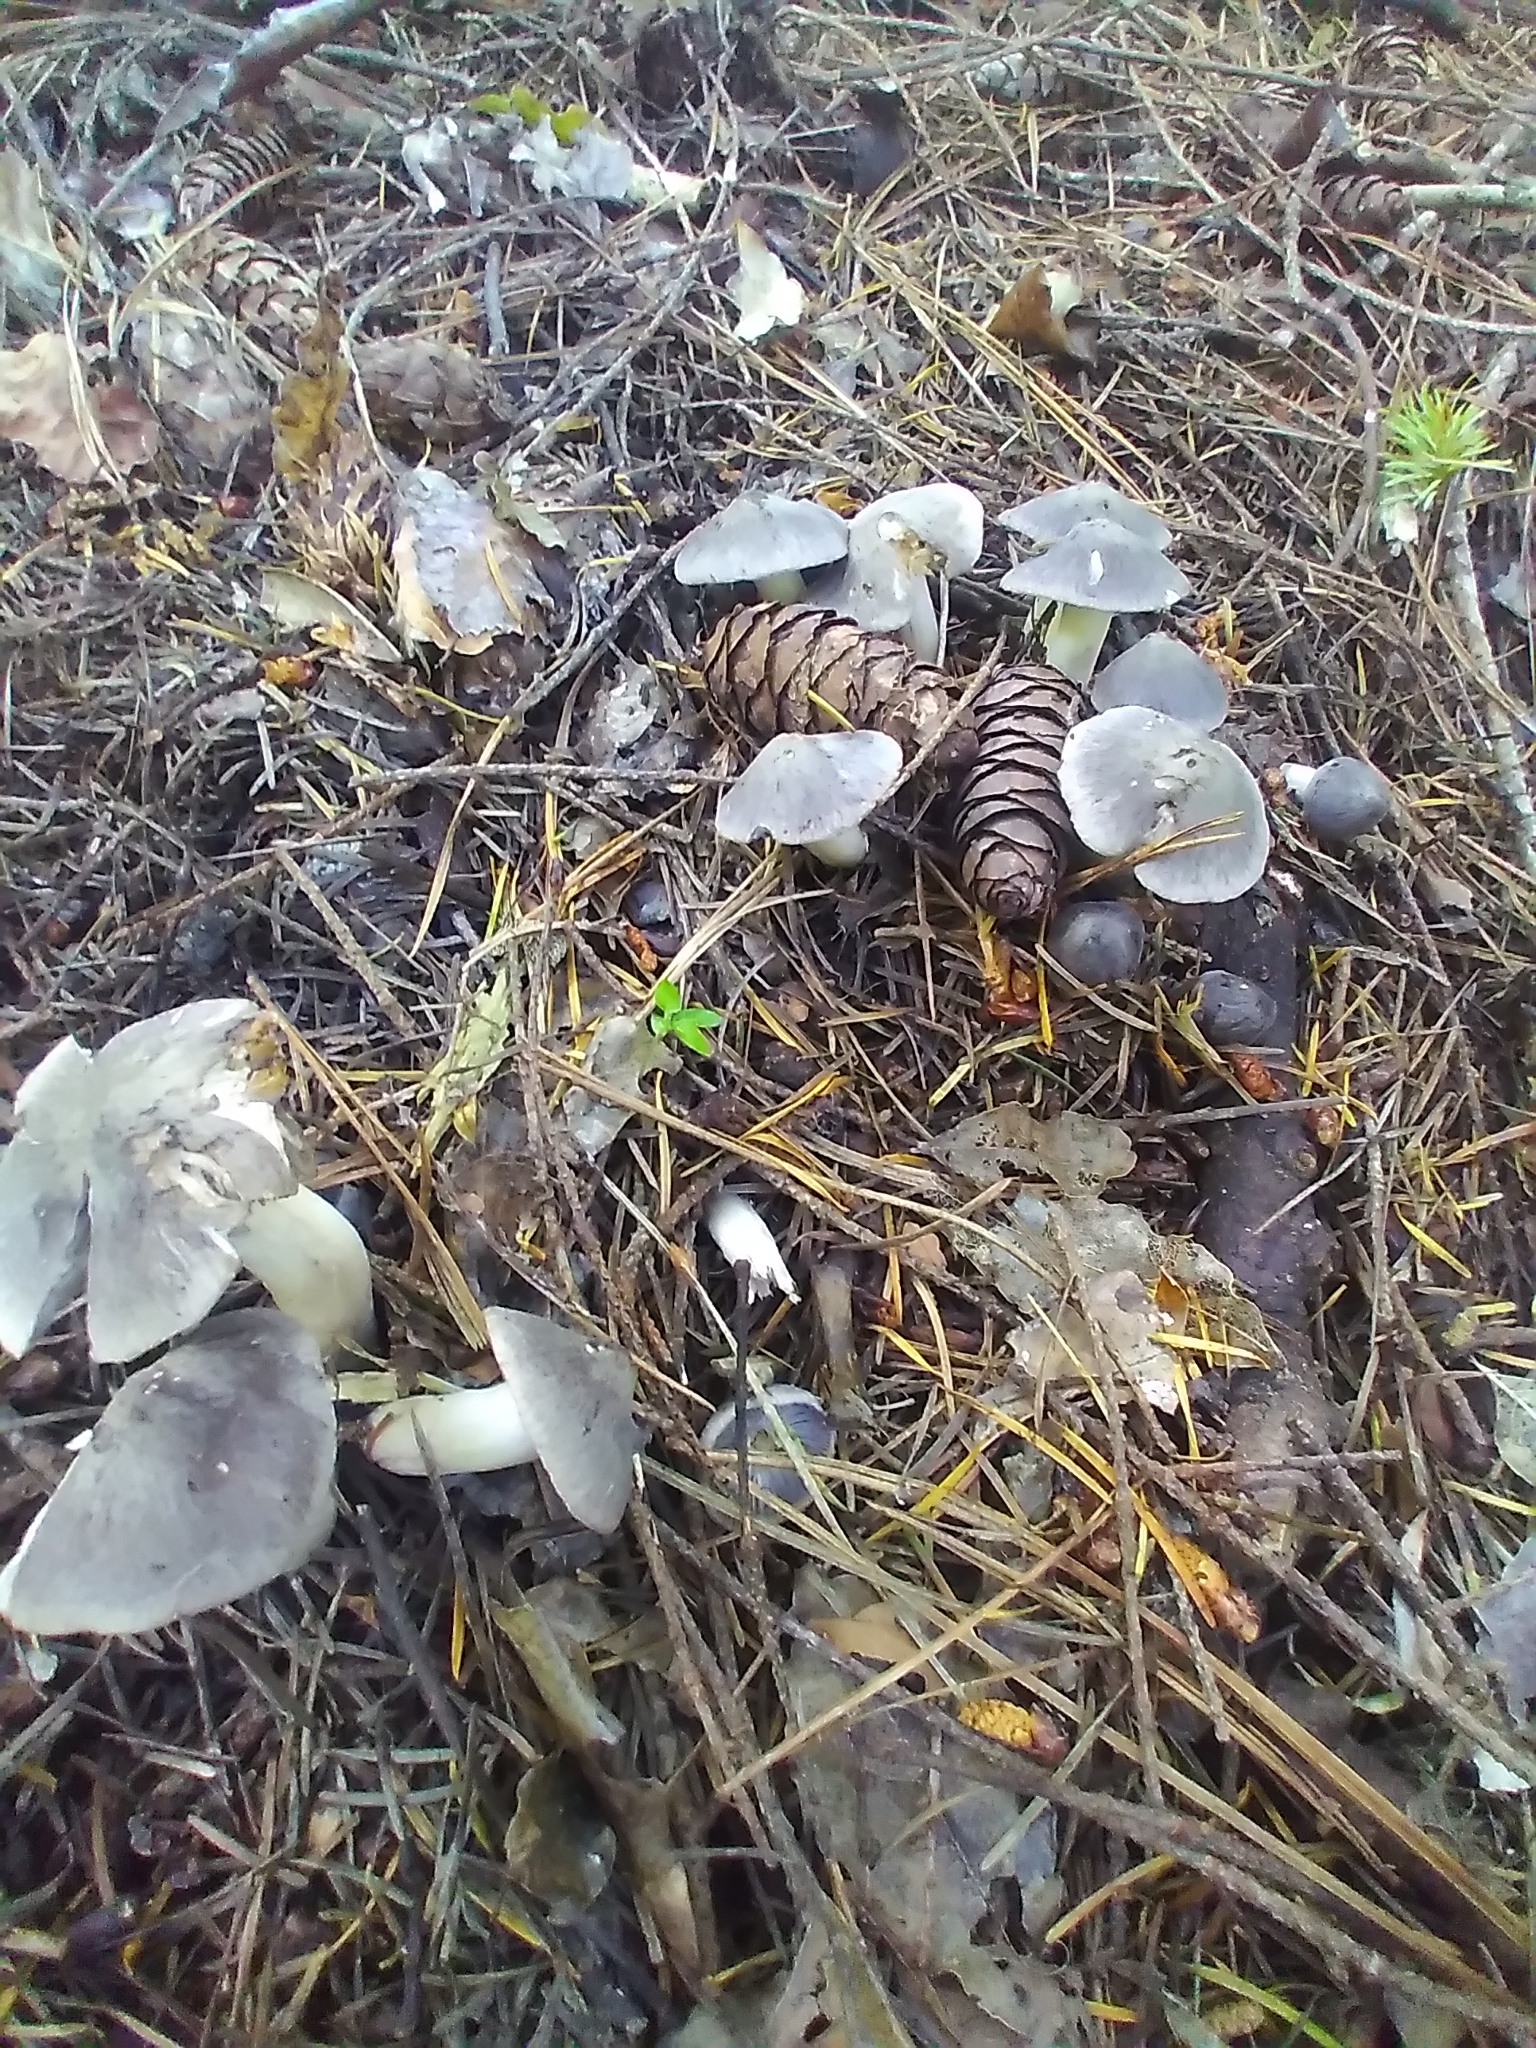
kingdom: Fungi
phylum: Basidiomycota
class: Agaricomycetes
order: Agaricales
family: Tricholomataceae
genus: Tricholoma
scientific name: Tricholoma terreum
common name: Grey knight
